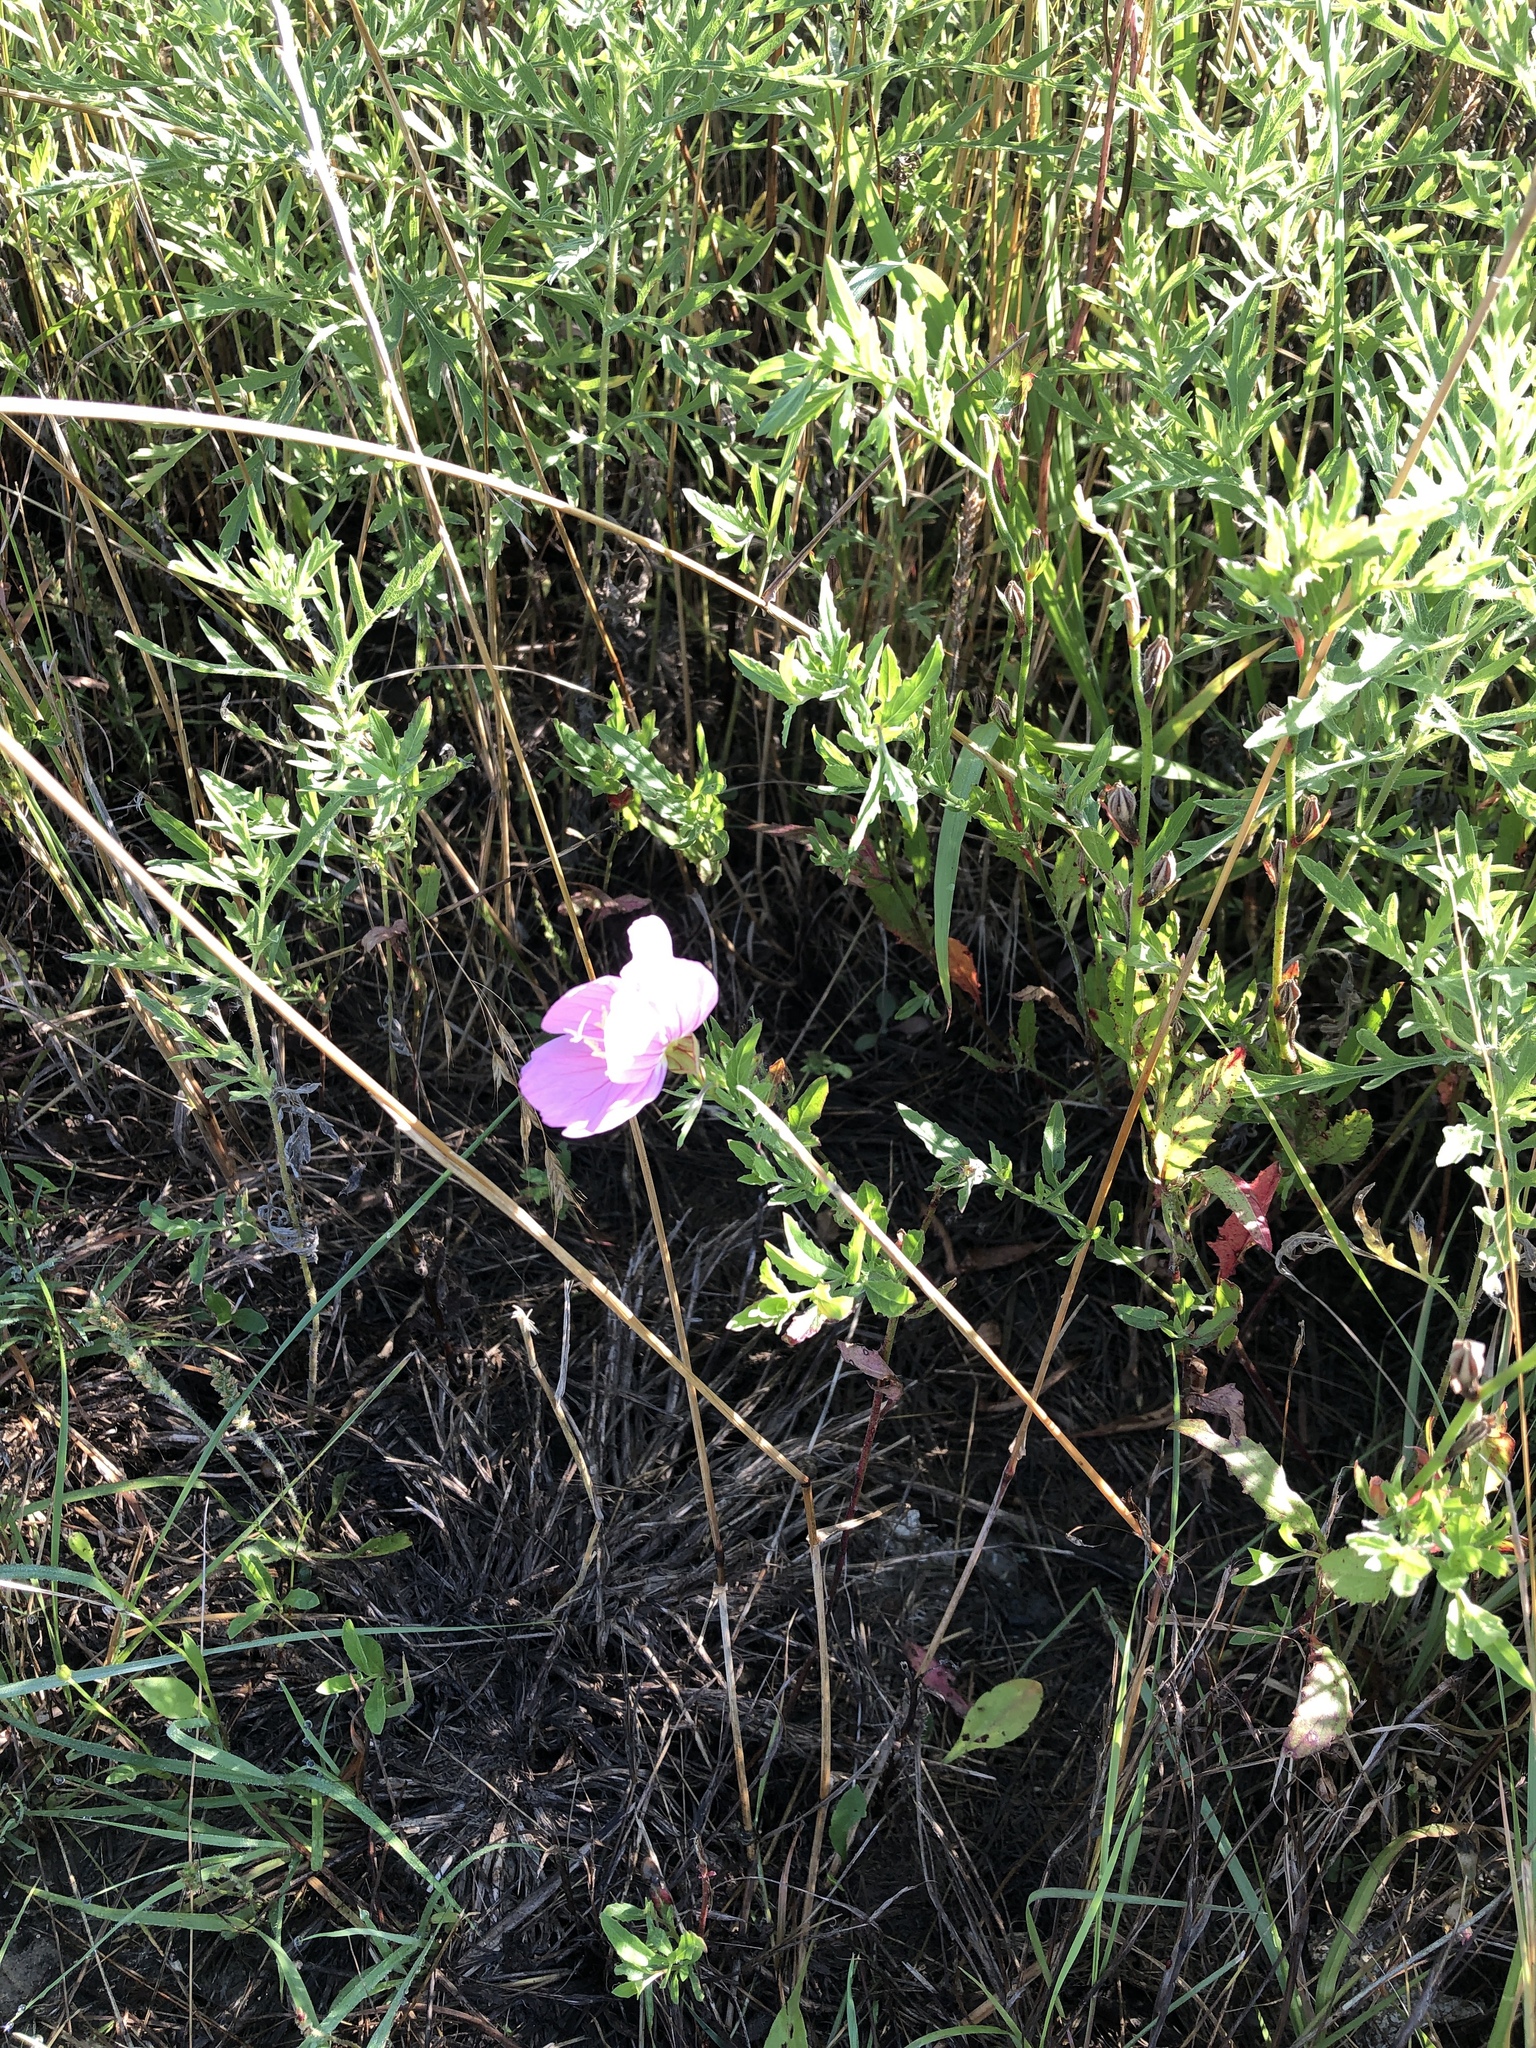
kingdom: Plantae
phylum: Tracheophyta
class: Magnoliopsida
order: Myrtales
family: Onagraceae
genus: Oenothera
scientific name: Oenothera speciosa
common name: White evening-primrose
